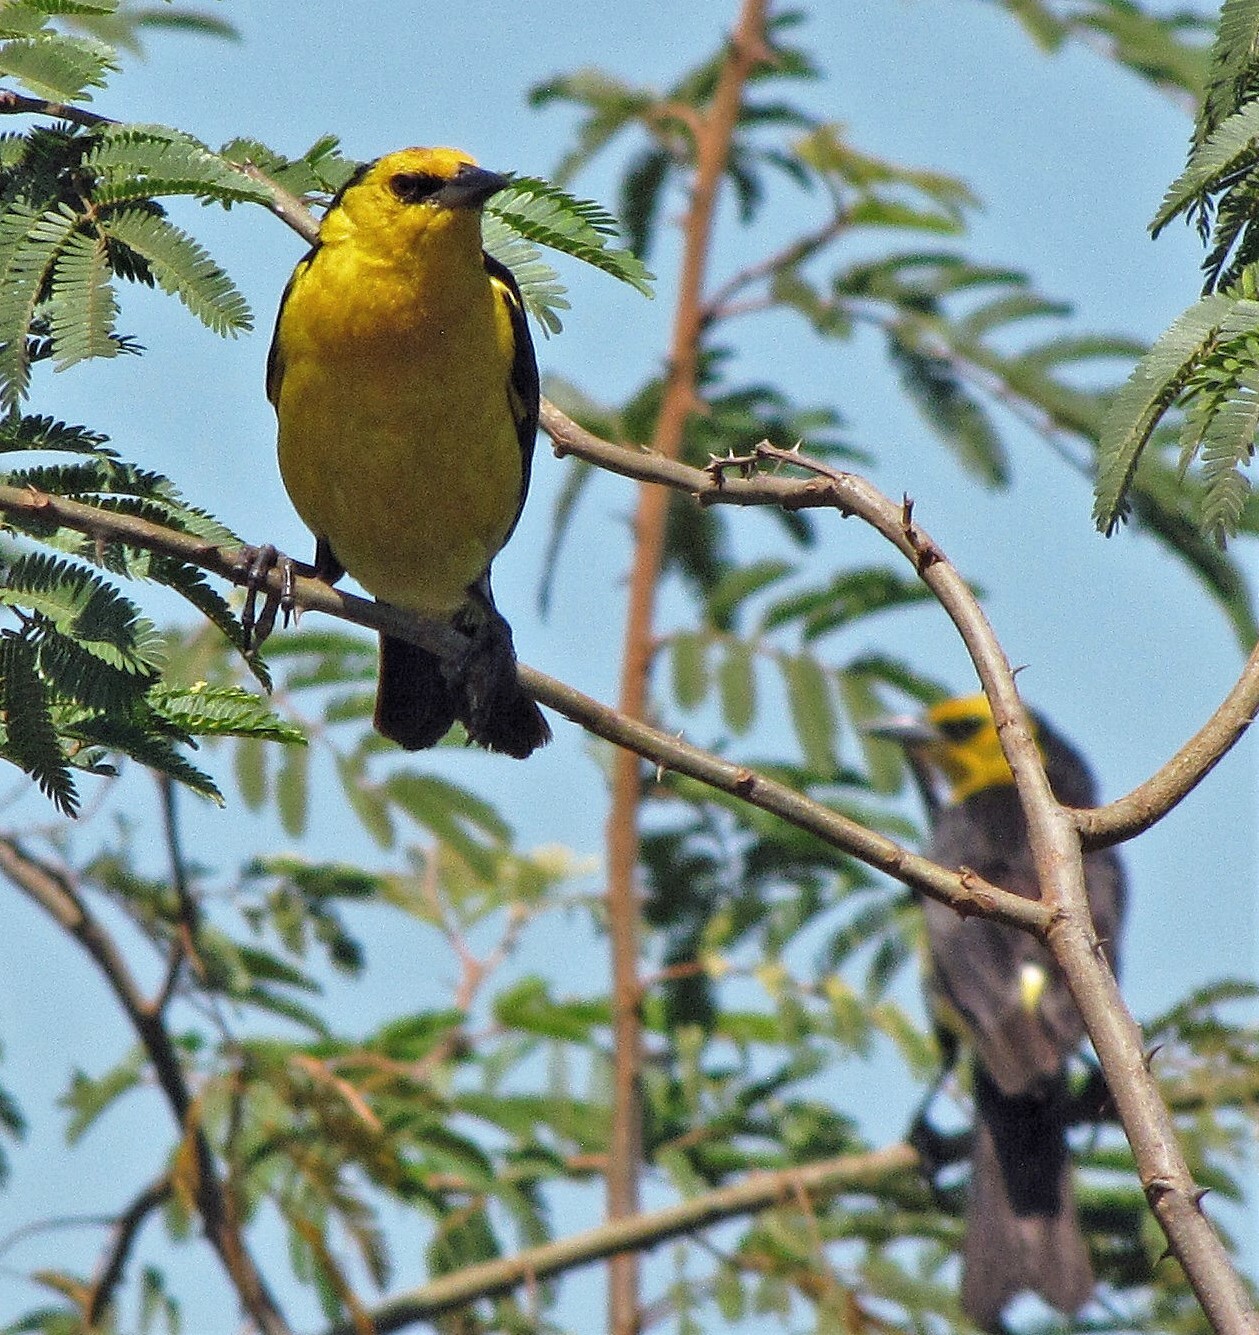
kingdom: Animalia
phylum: Chordata
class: Aves
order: Passeriformes
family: Icteridae
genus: Xanthopsar
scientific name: Xanthopsar flavus
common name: Saffron-cowled blackbird
